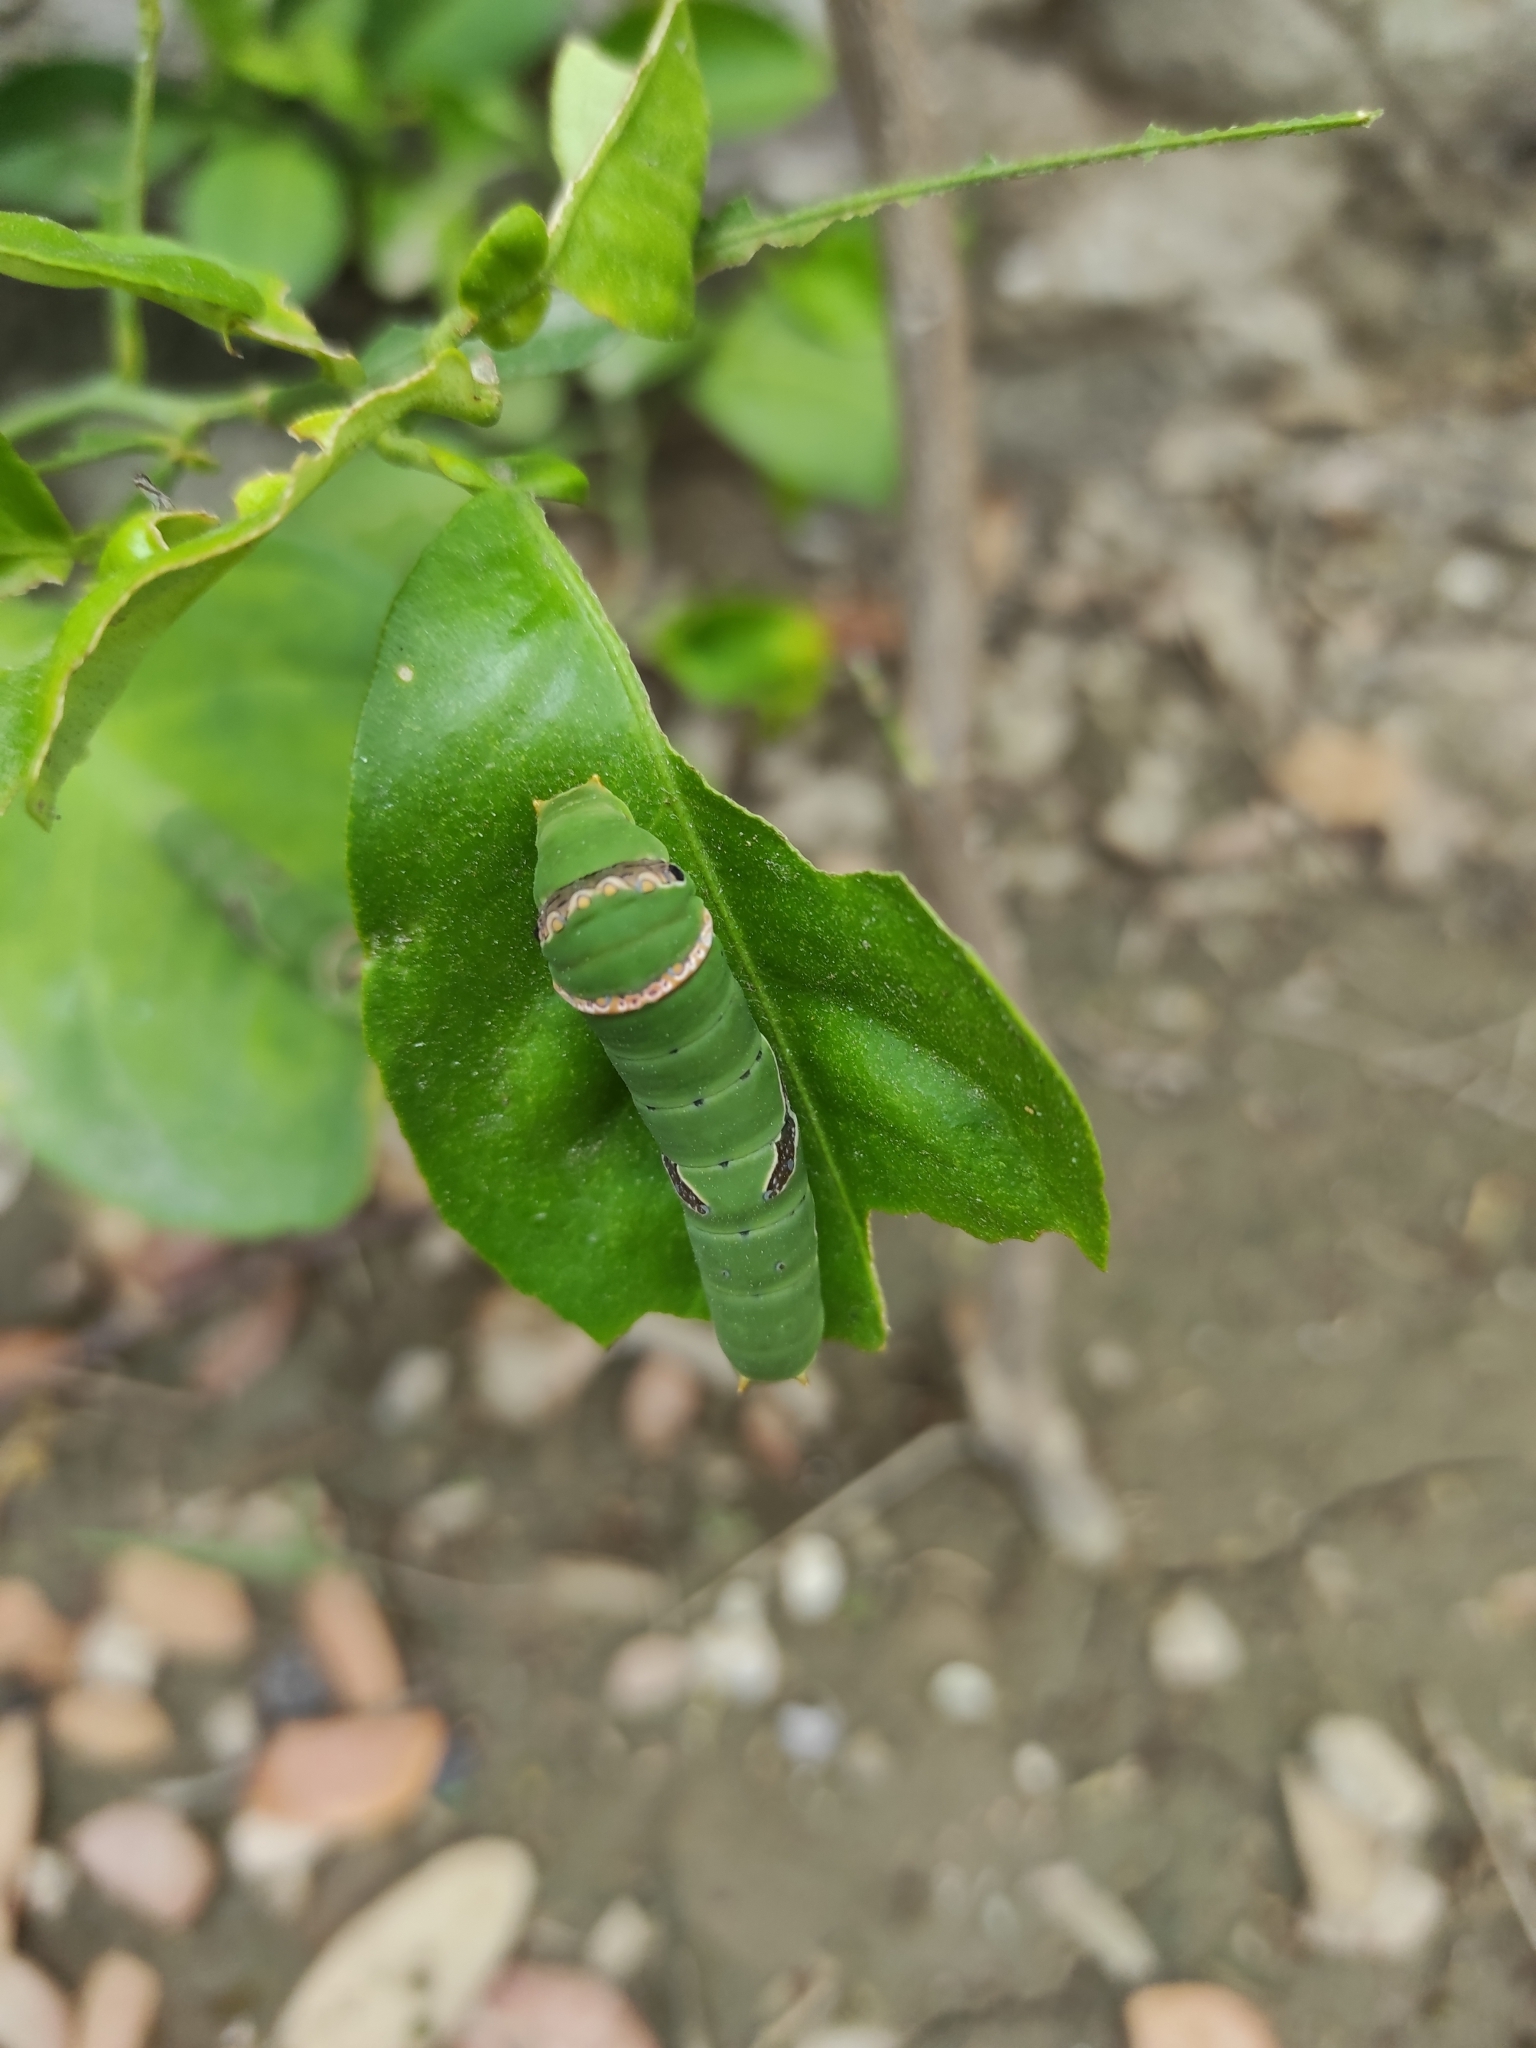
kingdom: Animalia
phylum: Arthropoda
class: Insecta
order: Lepidoptera
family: Papilionidae
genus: Papilio
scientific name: Papilio demoleus
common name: Lime butterfly
